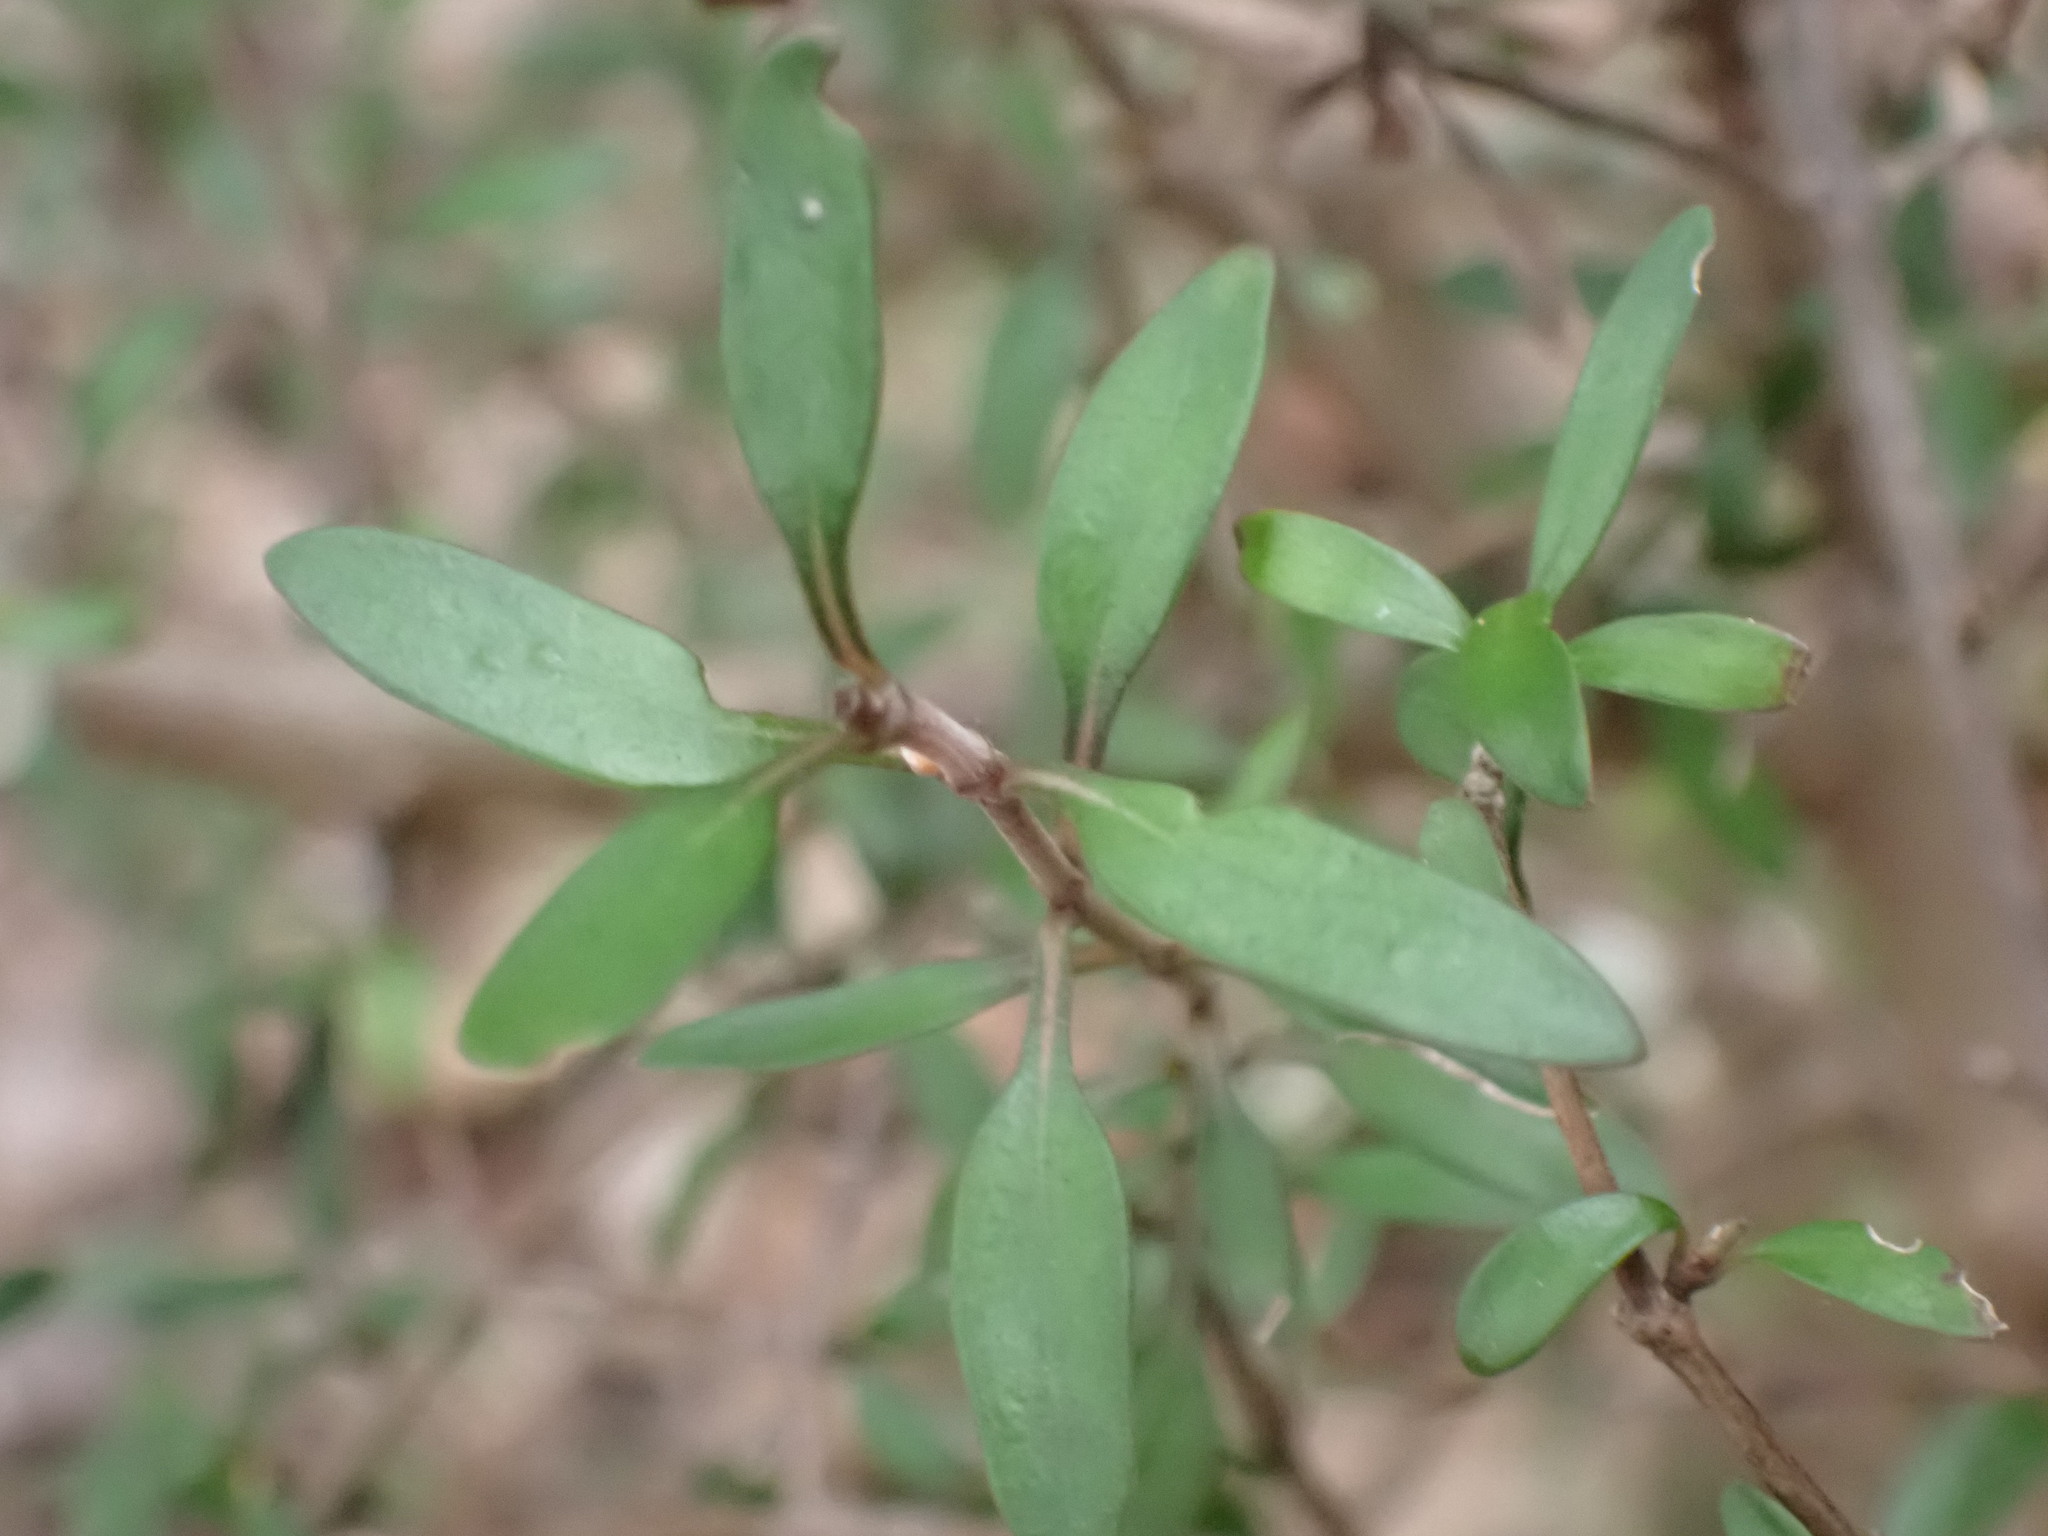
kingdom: Plantae
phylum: Tracheophyta
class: Magnoliopsida
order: Gentianales
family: Rubiaceae
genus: Coprosma
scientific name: Coprosma propinqua
